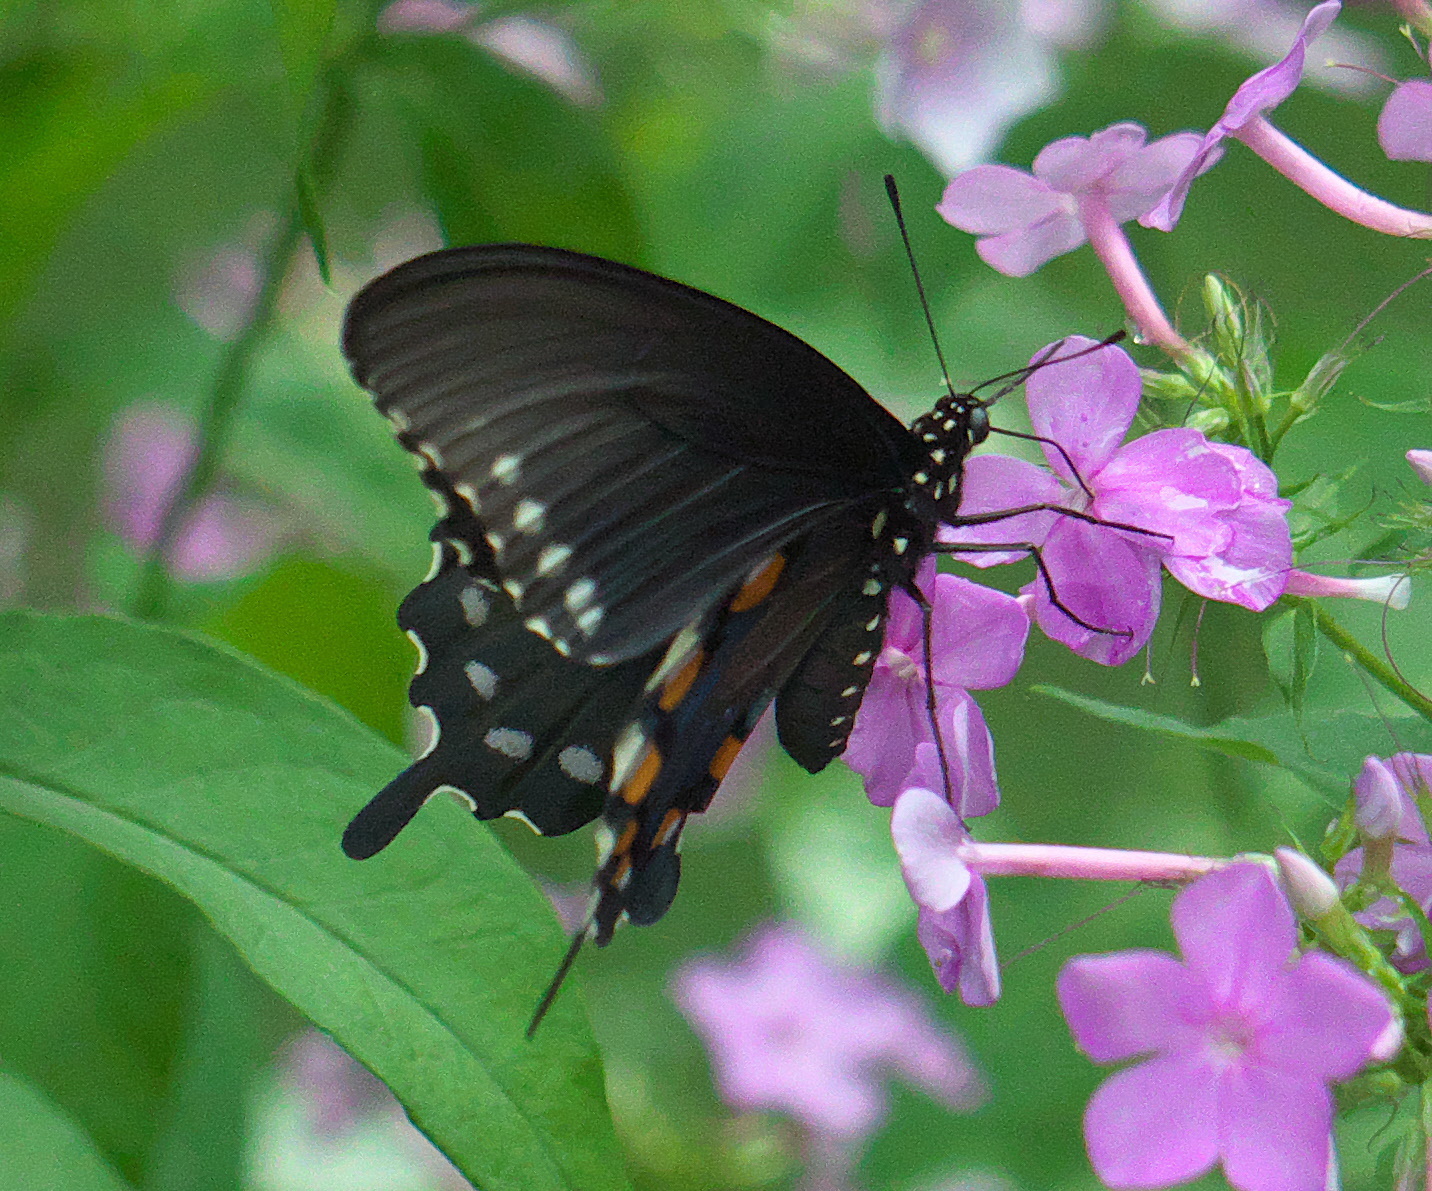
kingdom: Animalia
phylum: Arthropoda
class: Insecta
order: Lepidoptera
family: Papilionidae
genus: Battus
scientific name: Battus philenor
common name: Pipevine swallowtail
